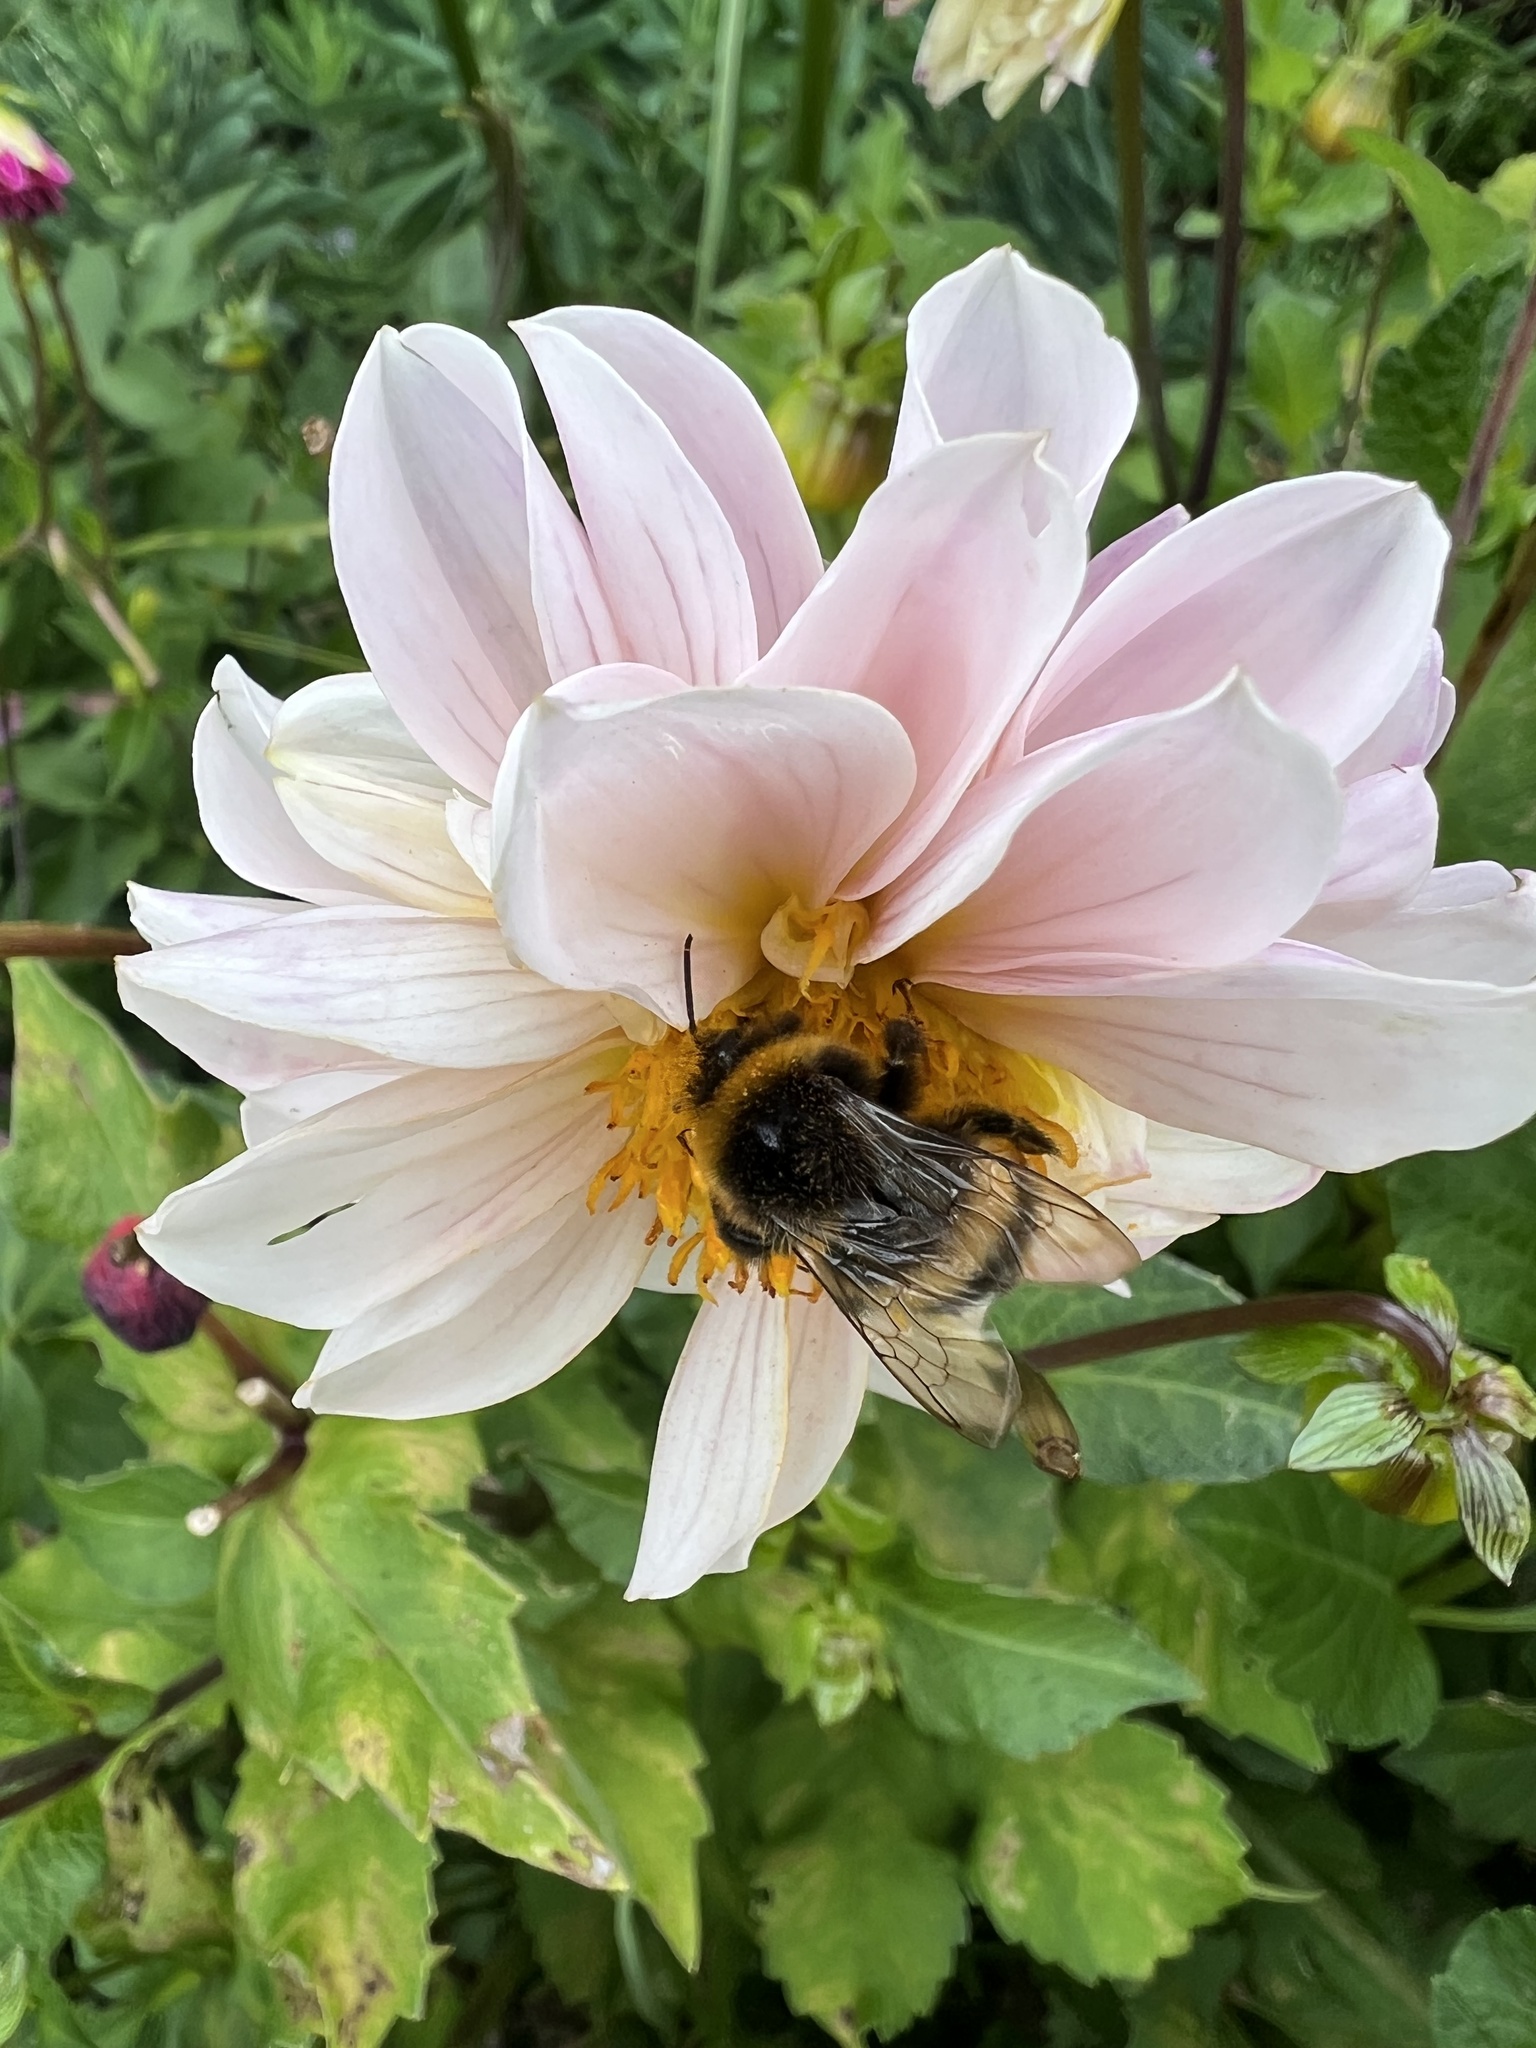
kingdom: Animalia
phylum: Arthropoda
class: Insecta
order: Hymenoptera
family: Apidae
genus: Bombus
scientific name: Bombus terrestris
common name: Buff-tailed bumblebee
